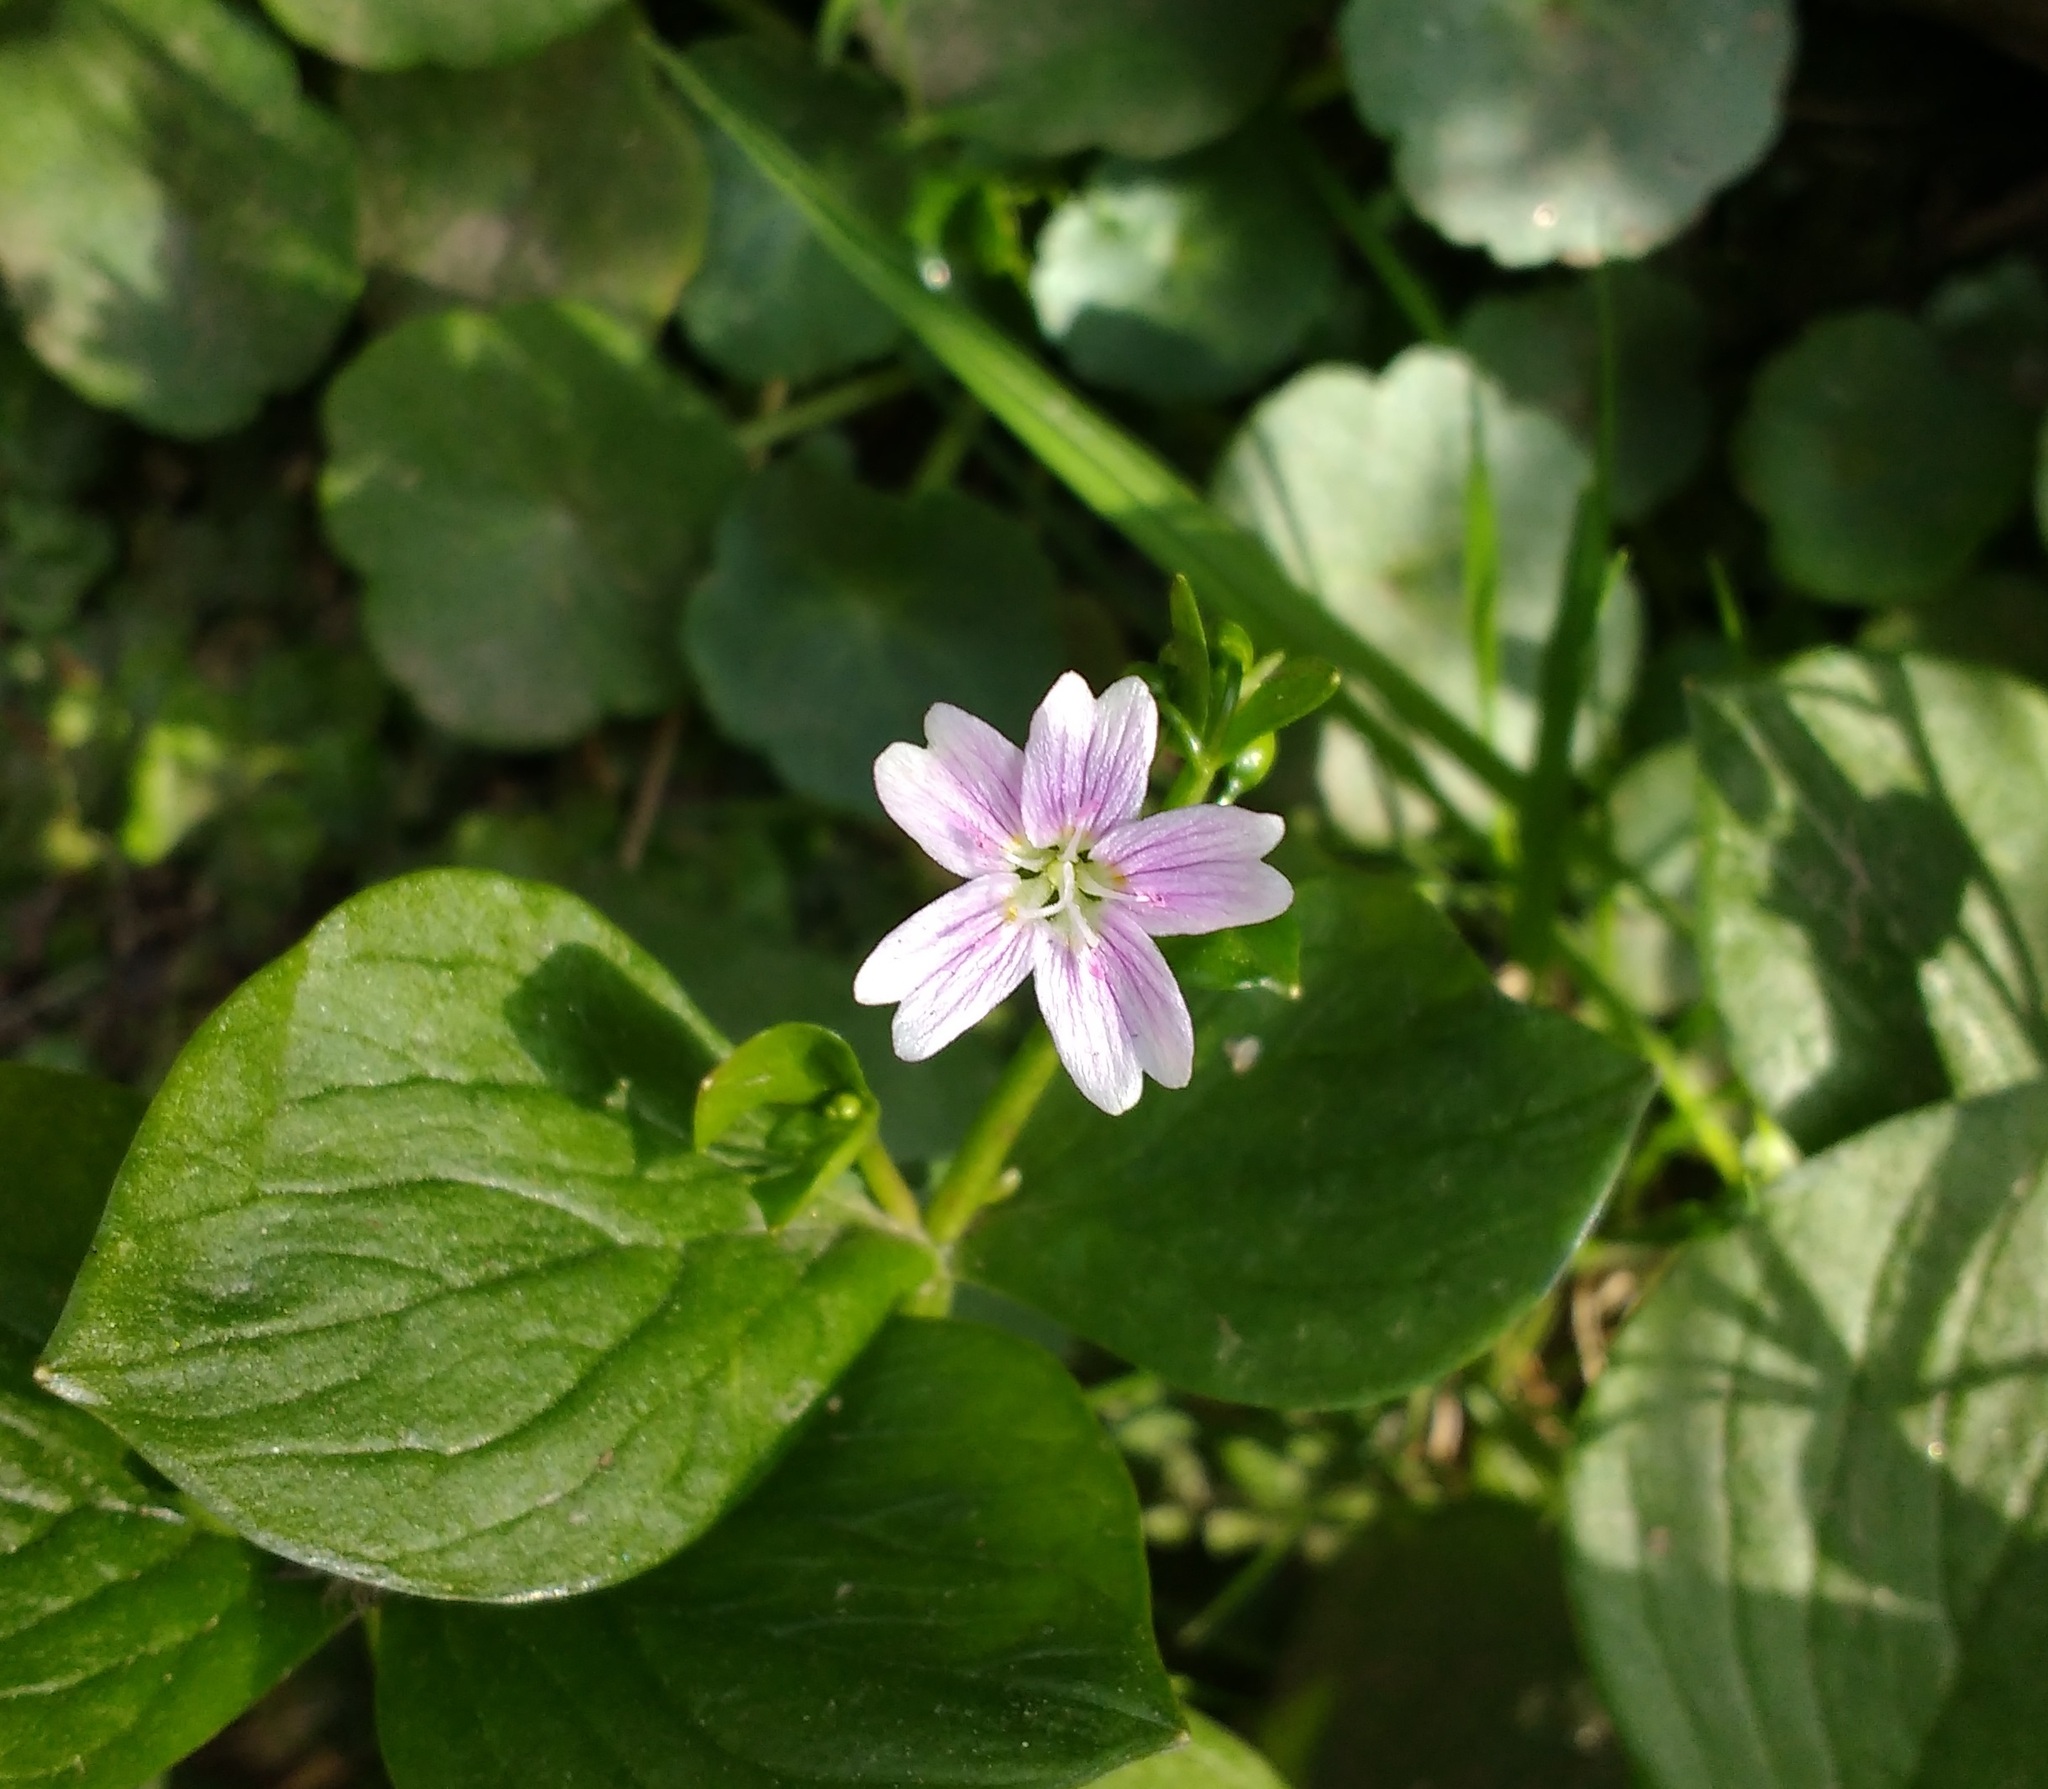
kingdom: Plantae
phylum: Tracheophyta
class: Magnoliopsida
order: Caryophyllales
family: Montiaceae
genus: Claytonia
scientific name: Claytonia sibirica
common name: Pink purslane
